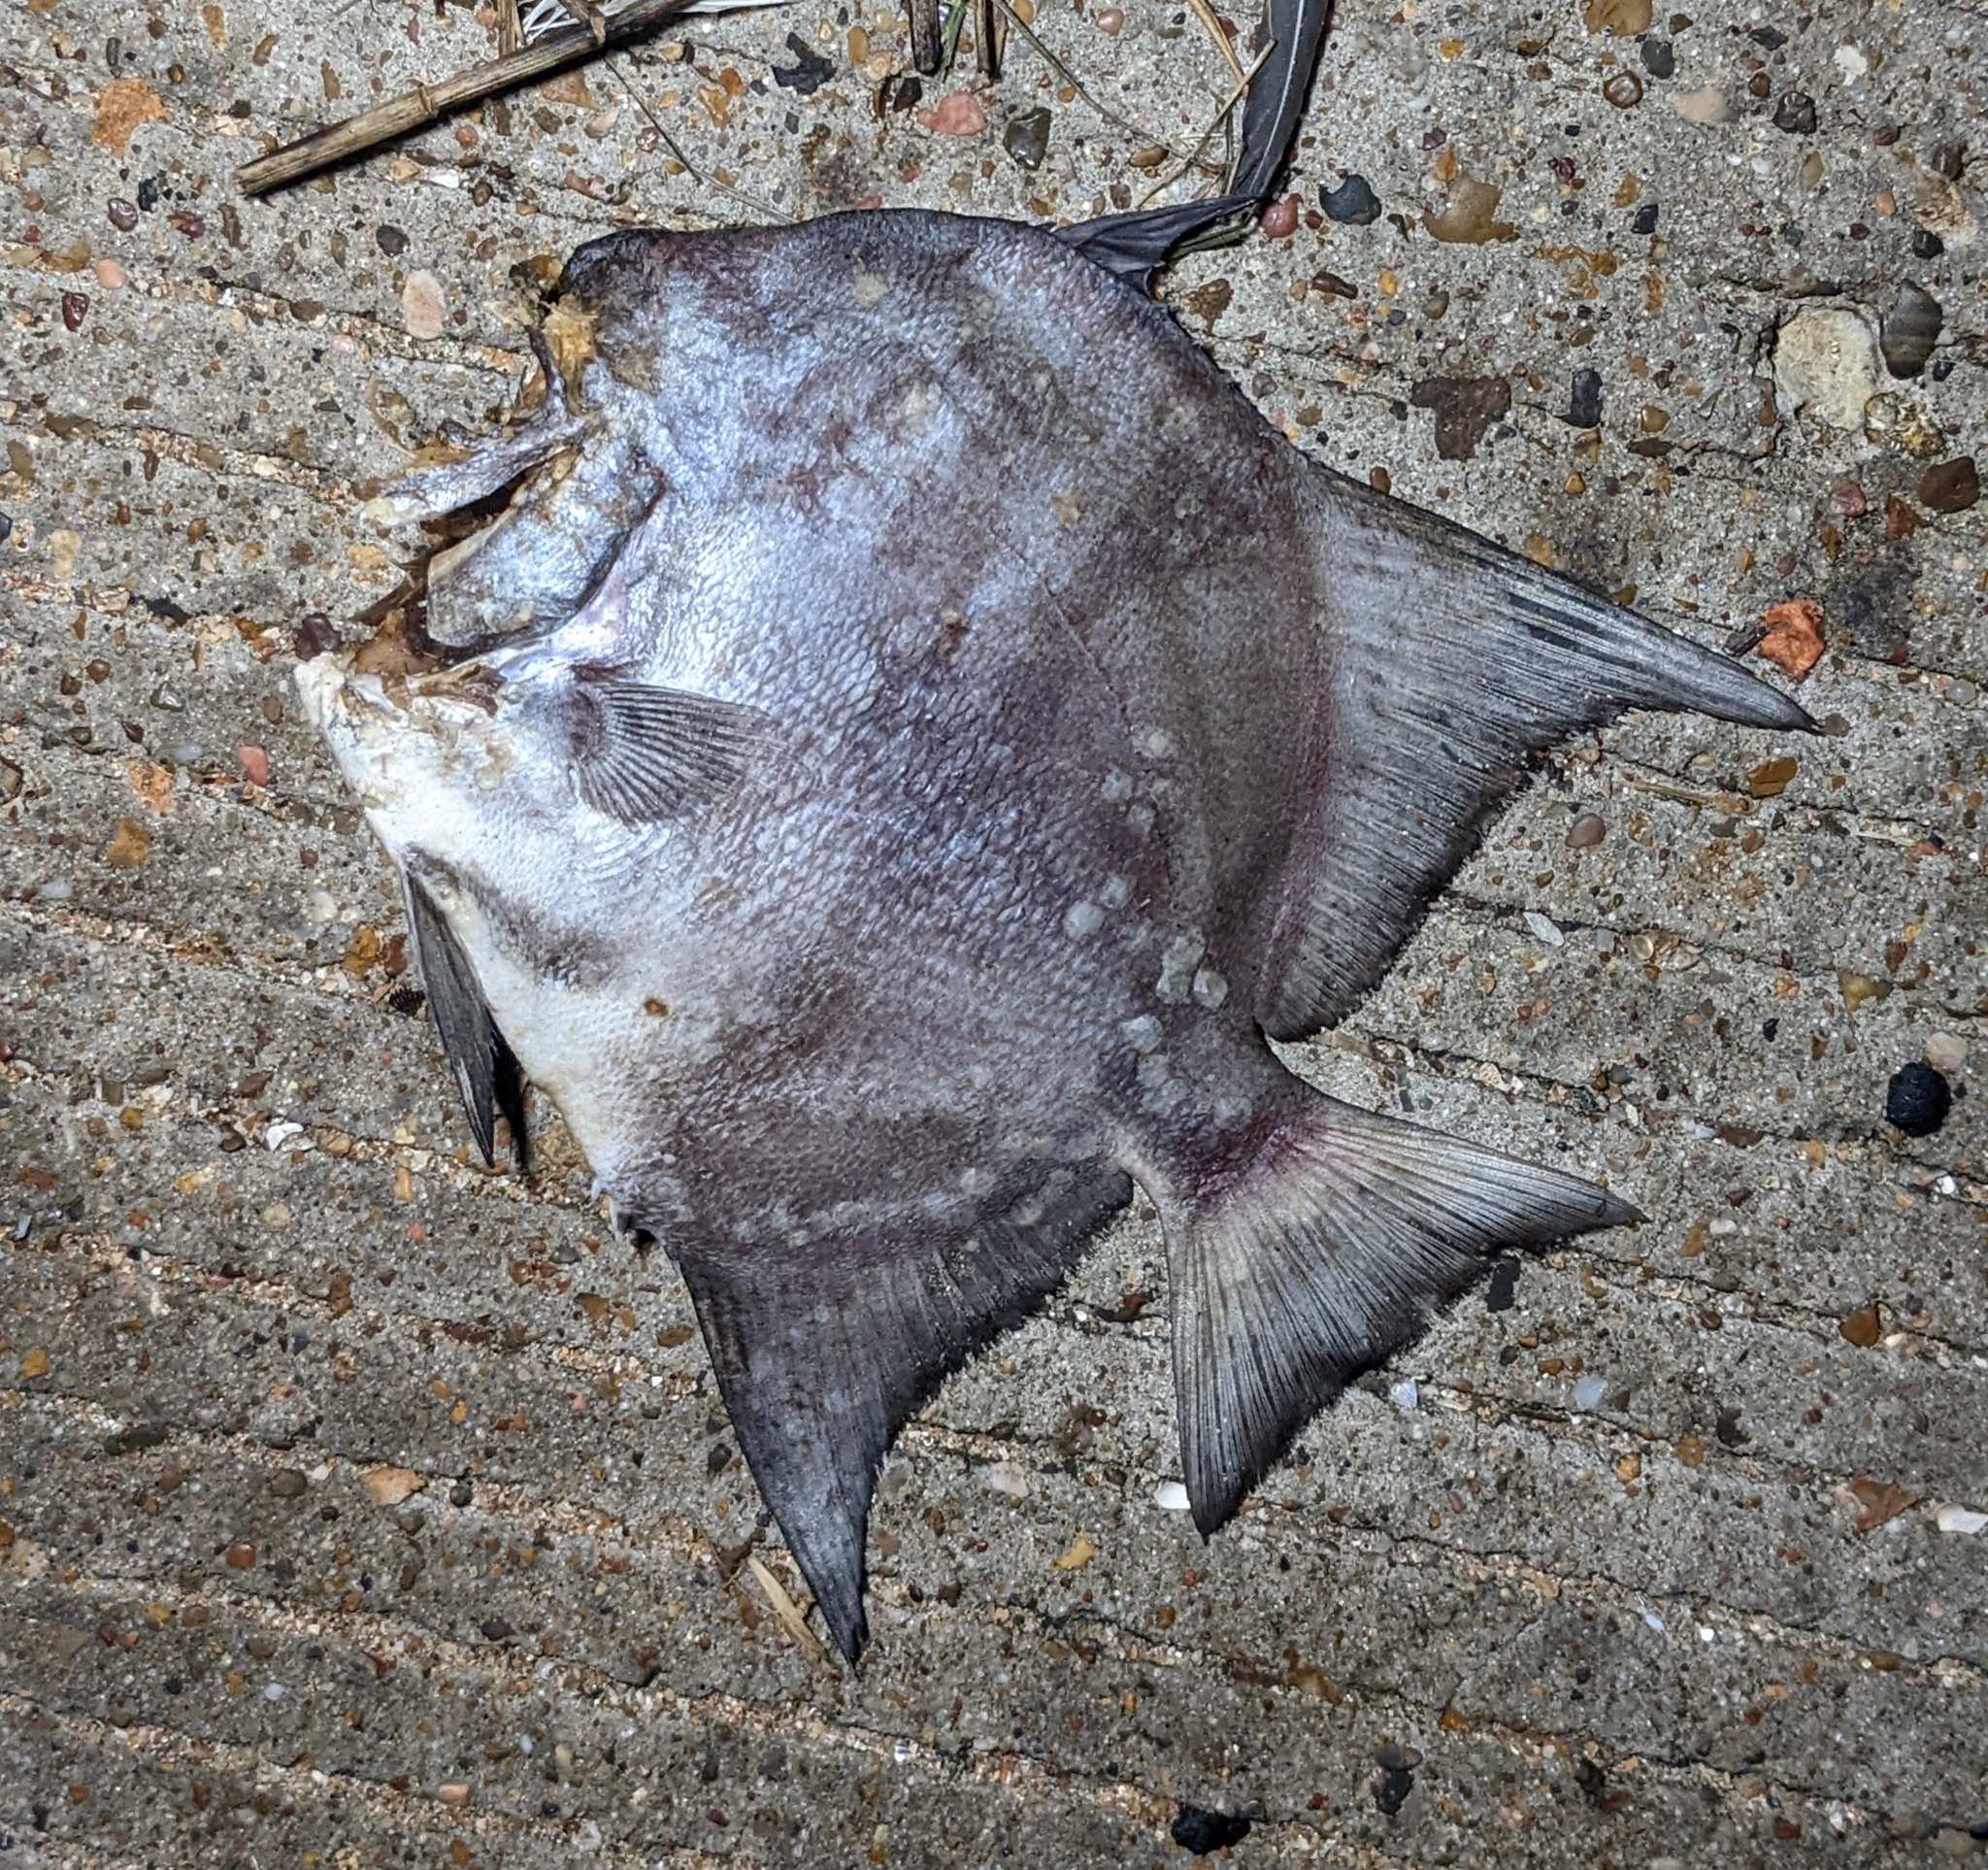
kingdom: Animalia
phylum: Chordata
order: Perciformes
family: Ephippidae
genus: Chaetodipterus
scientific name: Chaetodipterus faber
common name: Ocean cobbler
